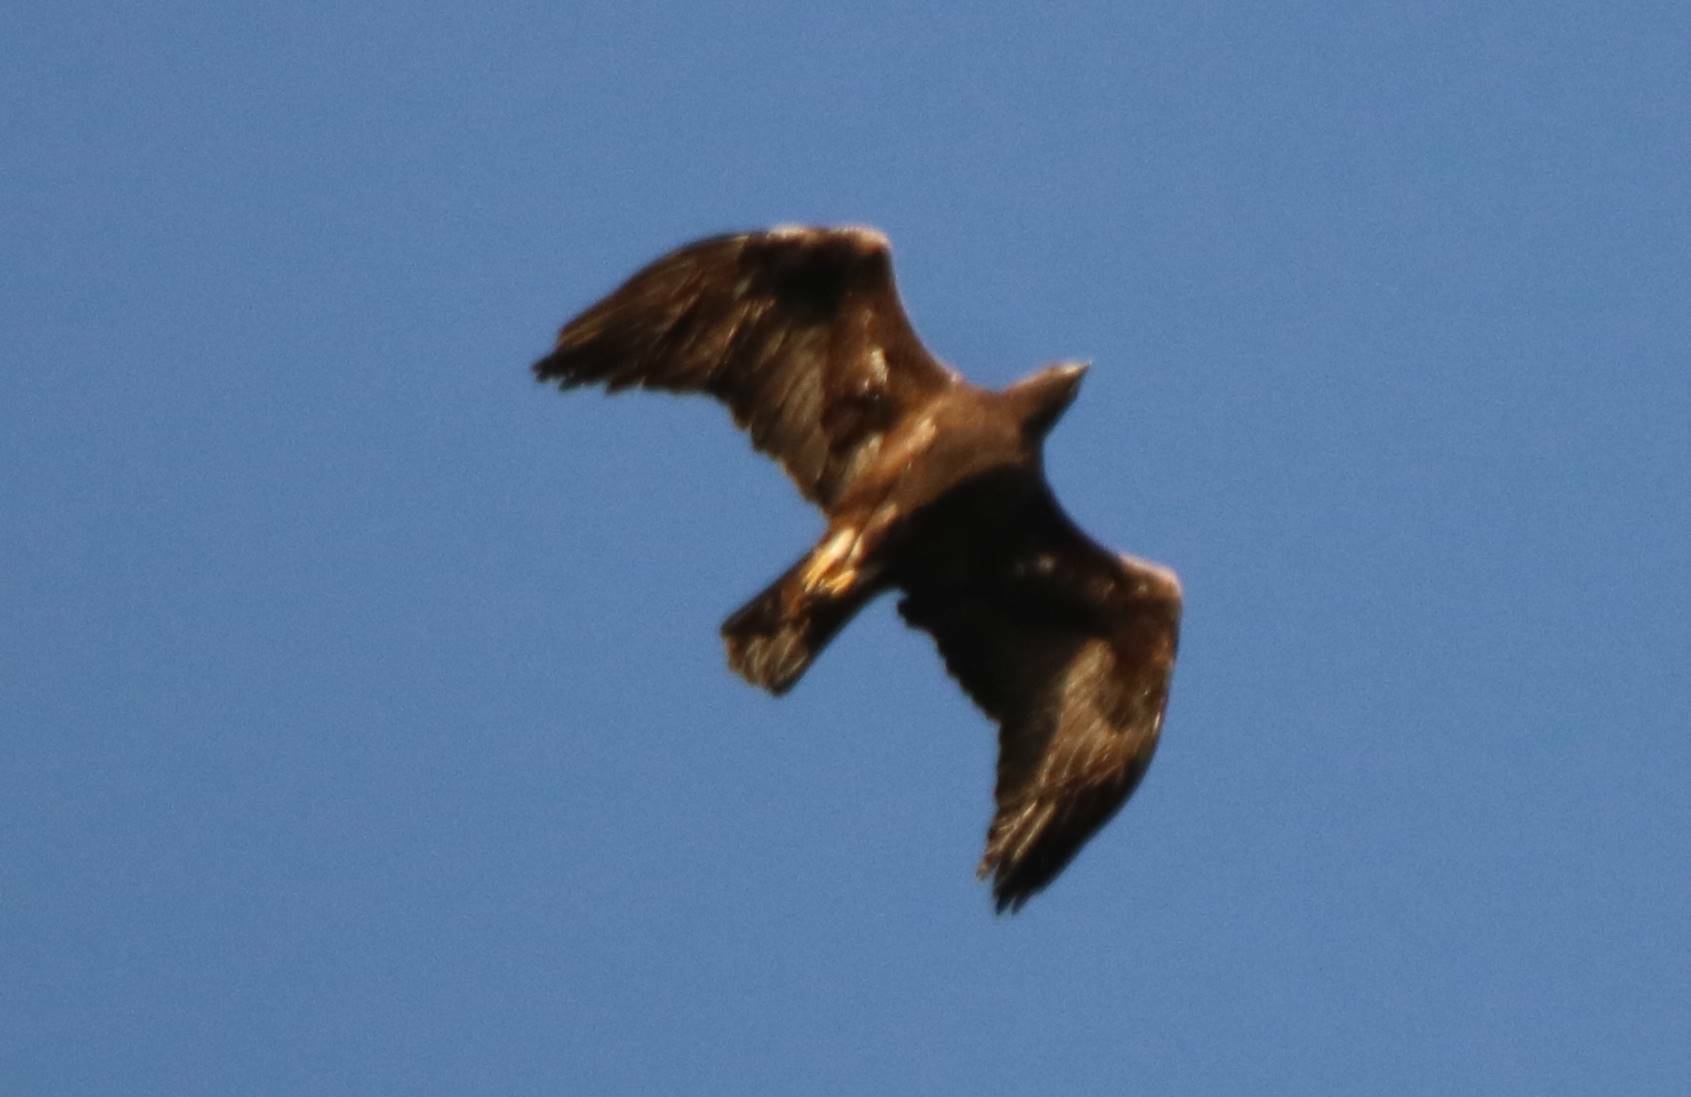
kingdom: Animalia
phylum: Chordata
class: Aves
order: Accipitriformes
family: Accipitridae
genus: Aquila
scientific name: Aquila chrysaetos
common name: Golden eagle
